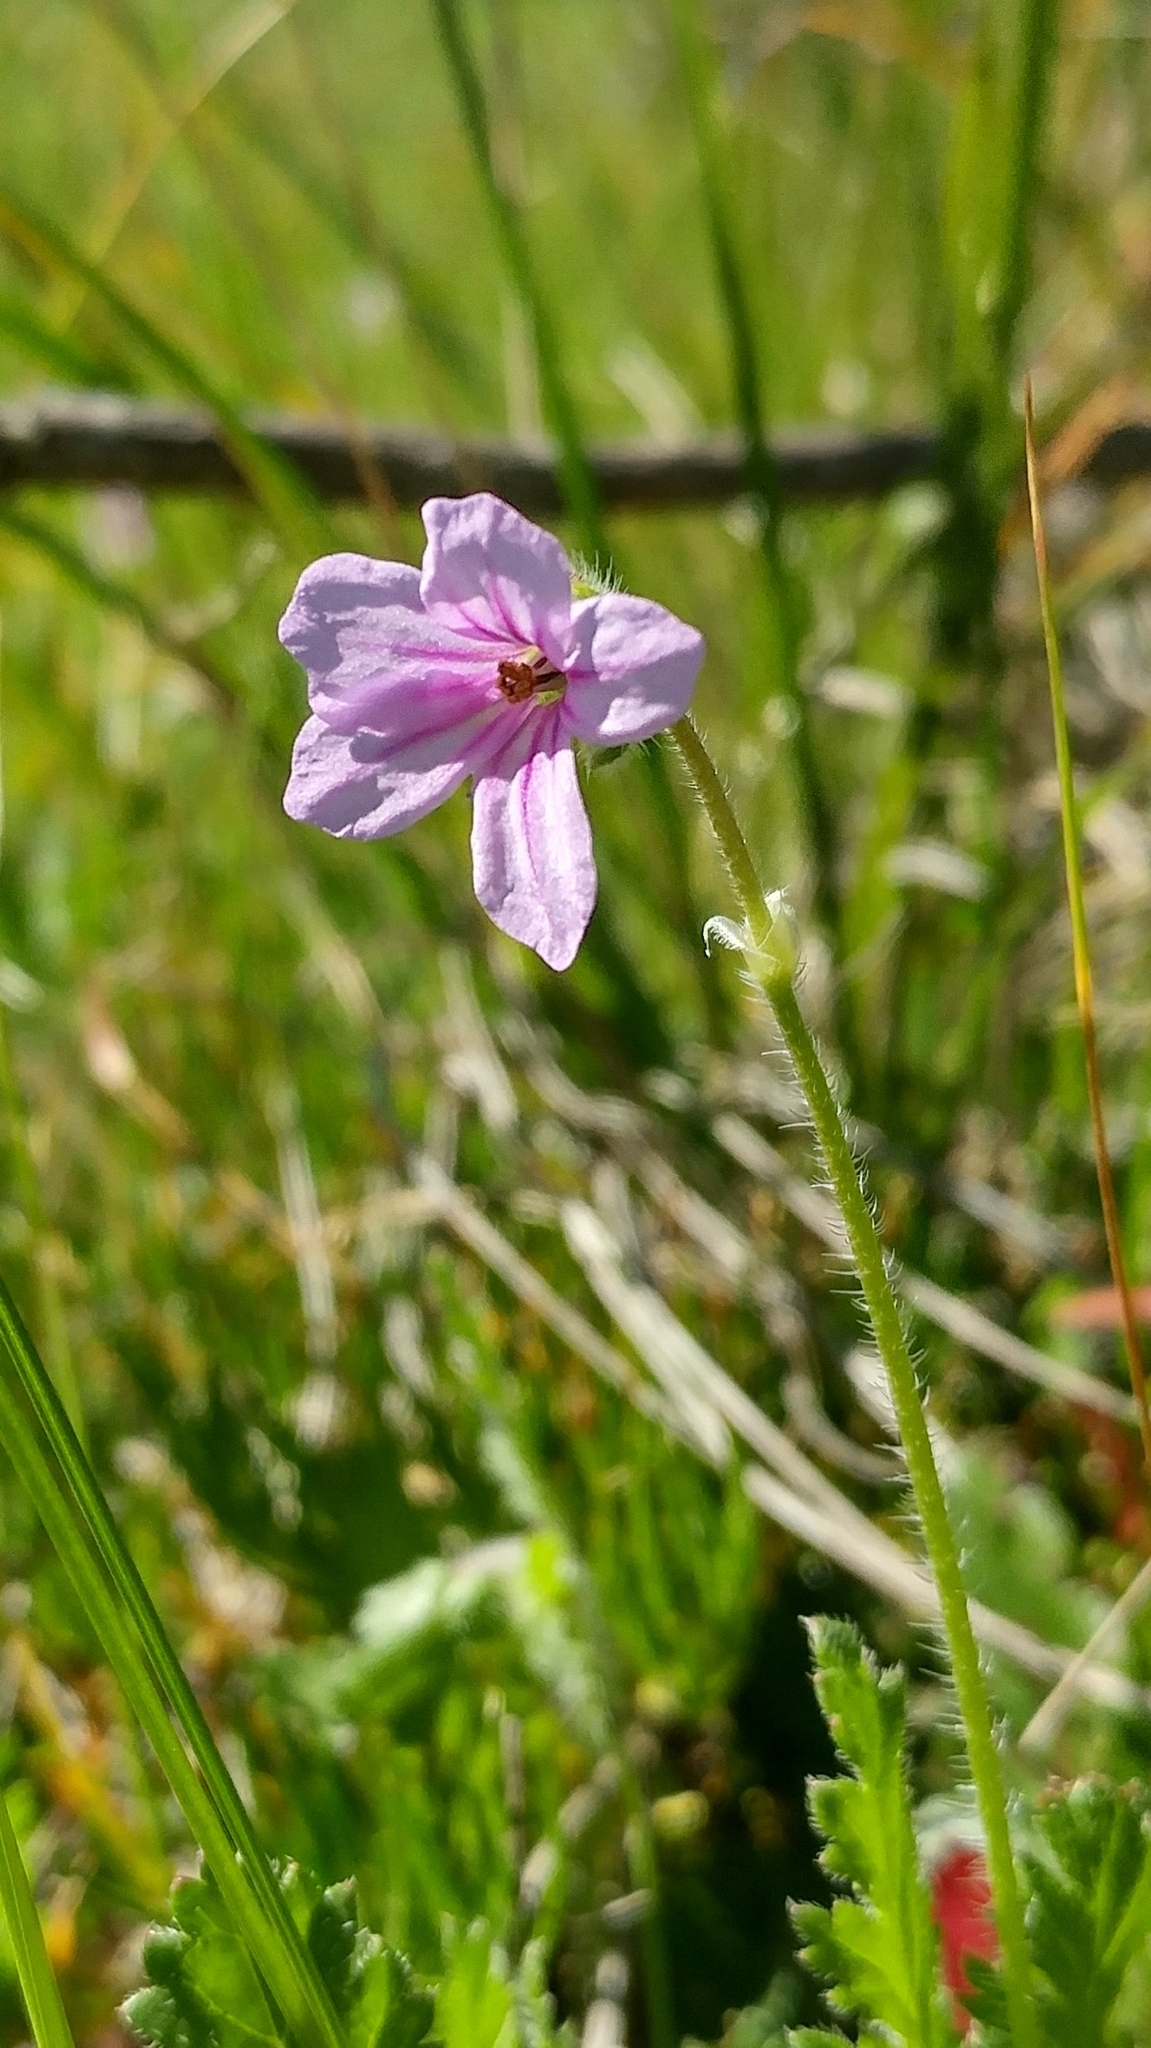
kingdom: Plantae
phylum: Tracheophyta
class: Magnoliopsida
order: Geraniales
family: Geraniaceae
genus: Erodium
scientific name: Erodium botrys
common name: Mediterranean stork's-bill
